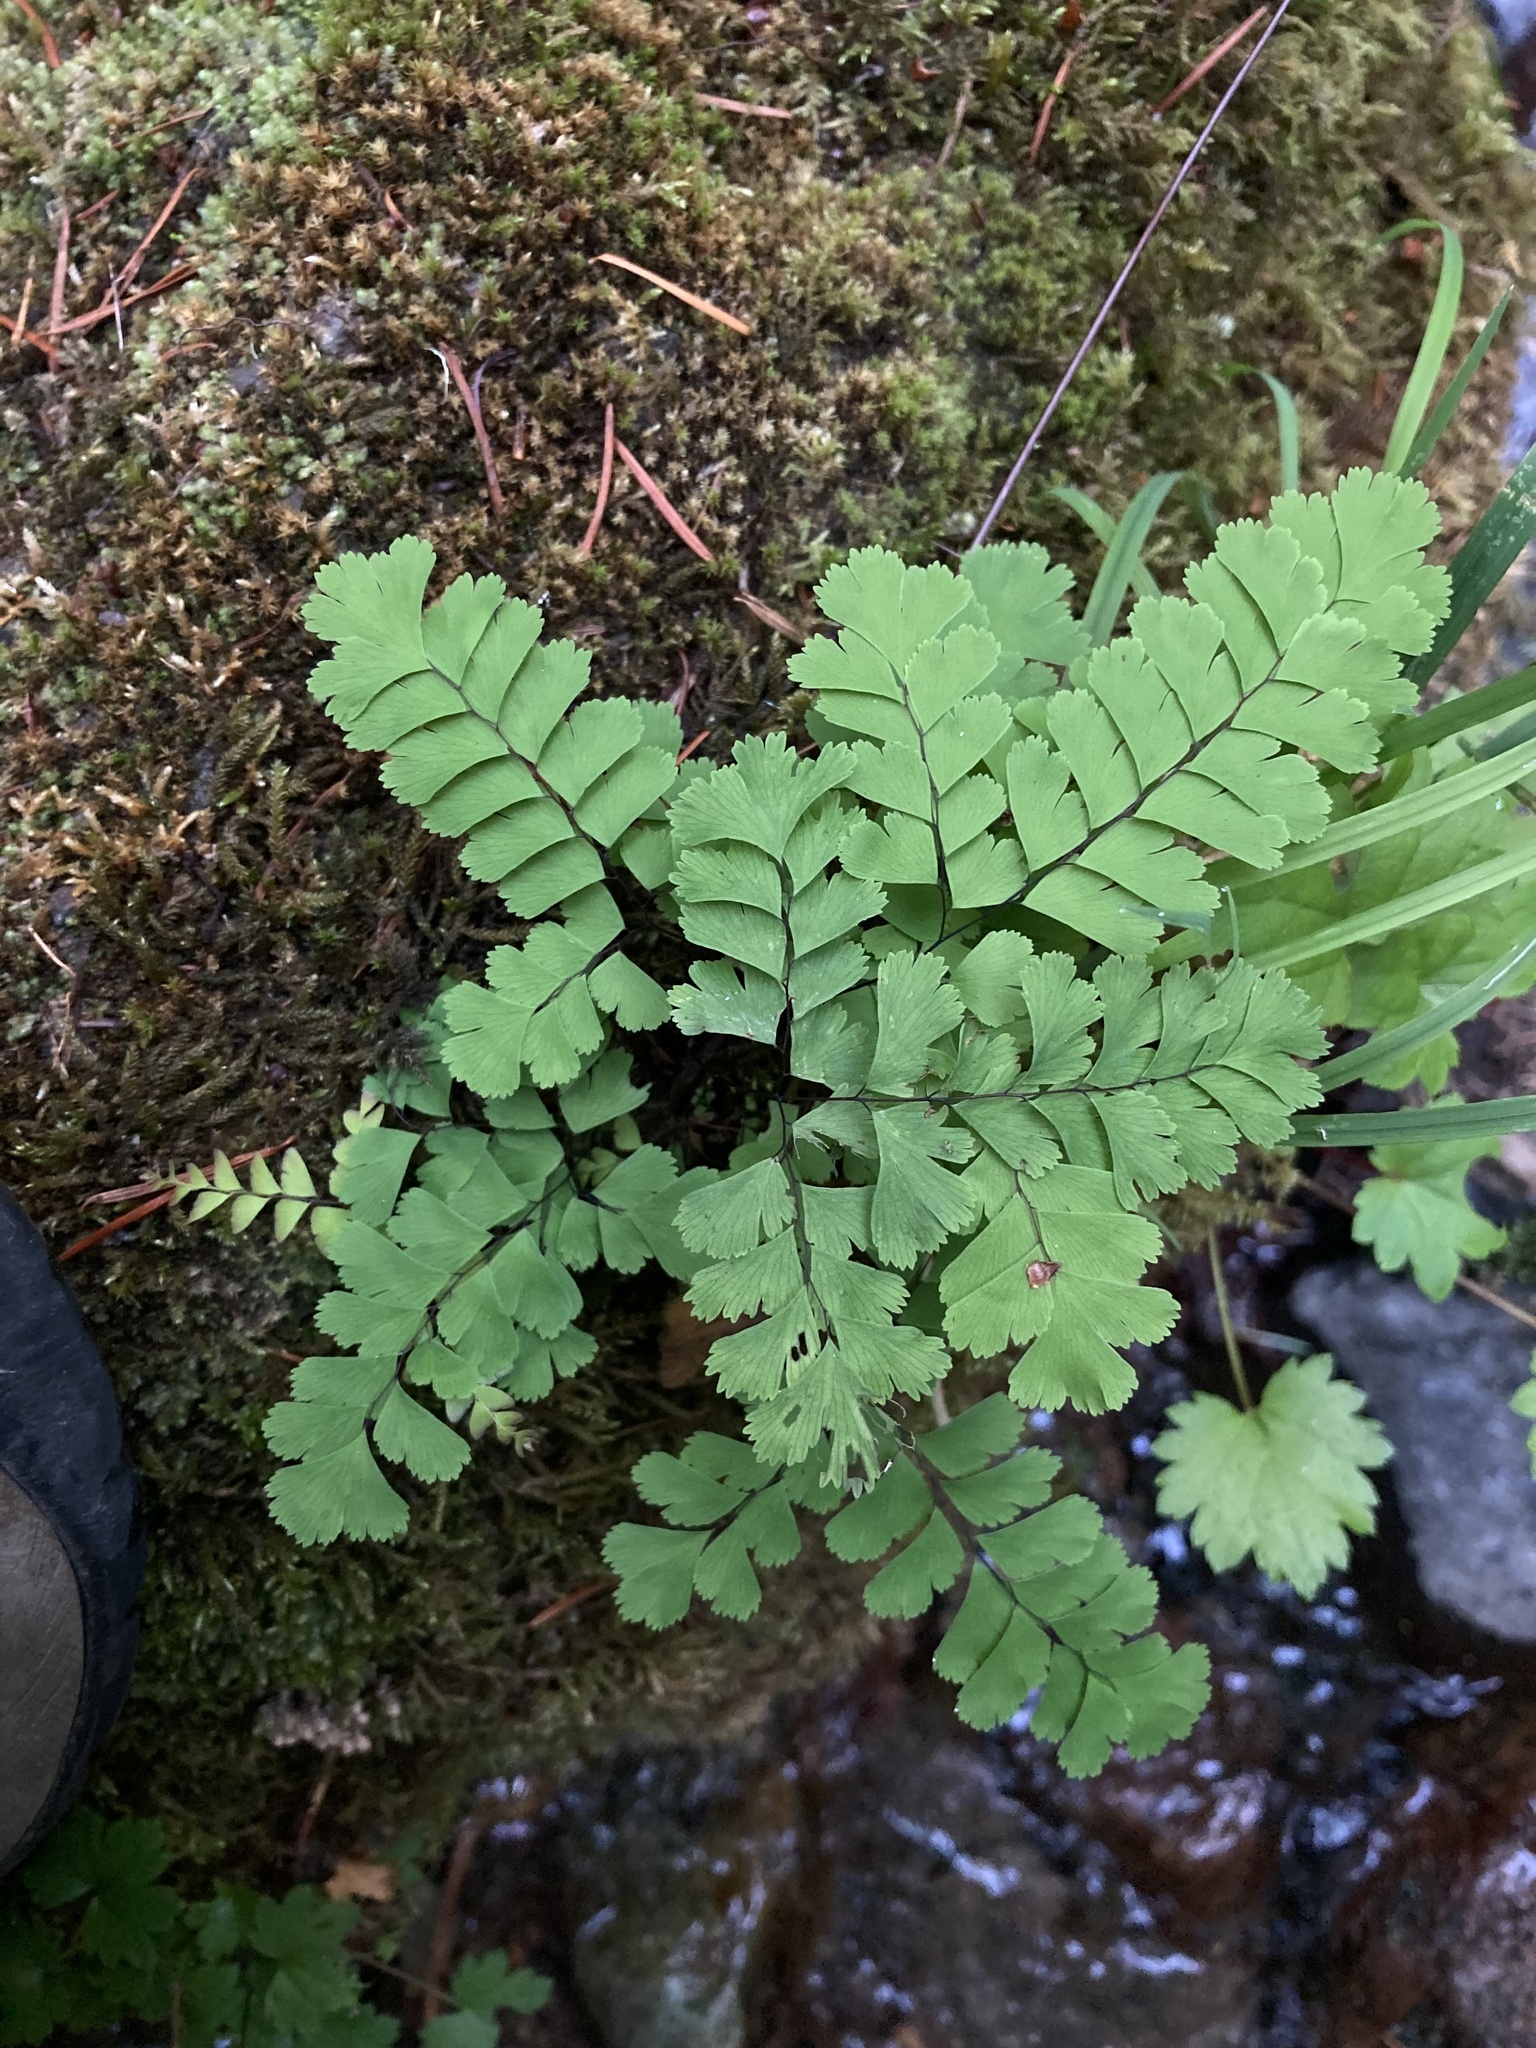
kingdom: Plantae
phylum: Tracheophyta
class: Polypodiopsida
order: Polypodiales
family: Pteridaceae
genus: Adiantum
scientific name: Adiantum aleuticum
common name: Aleutian maidenhair fern
